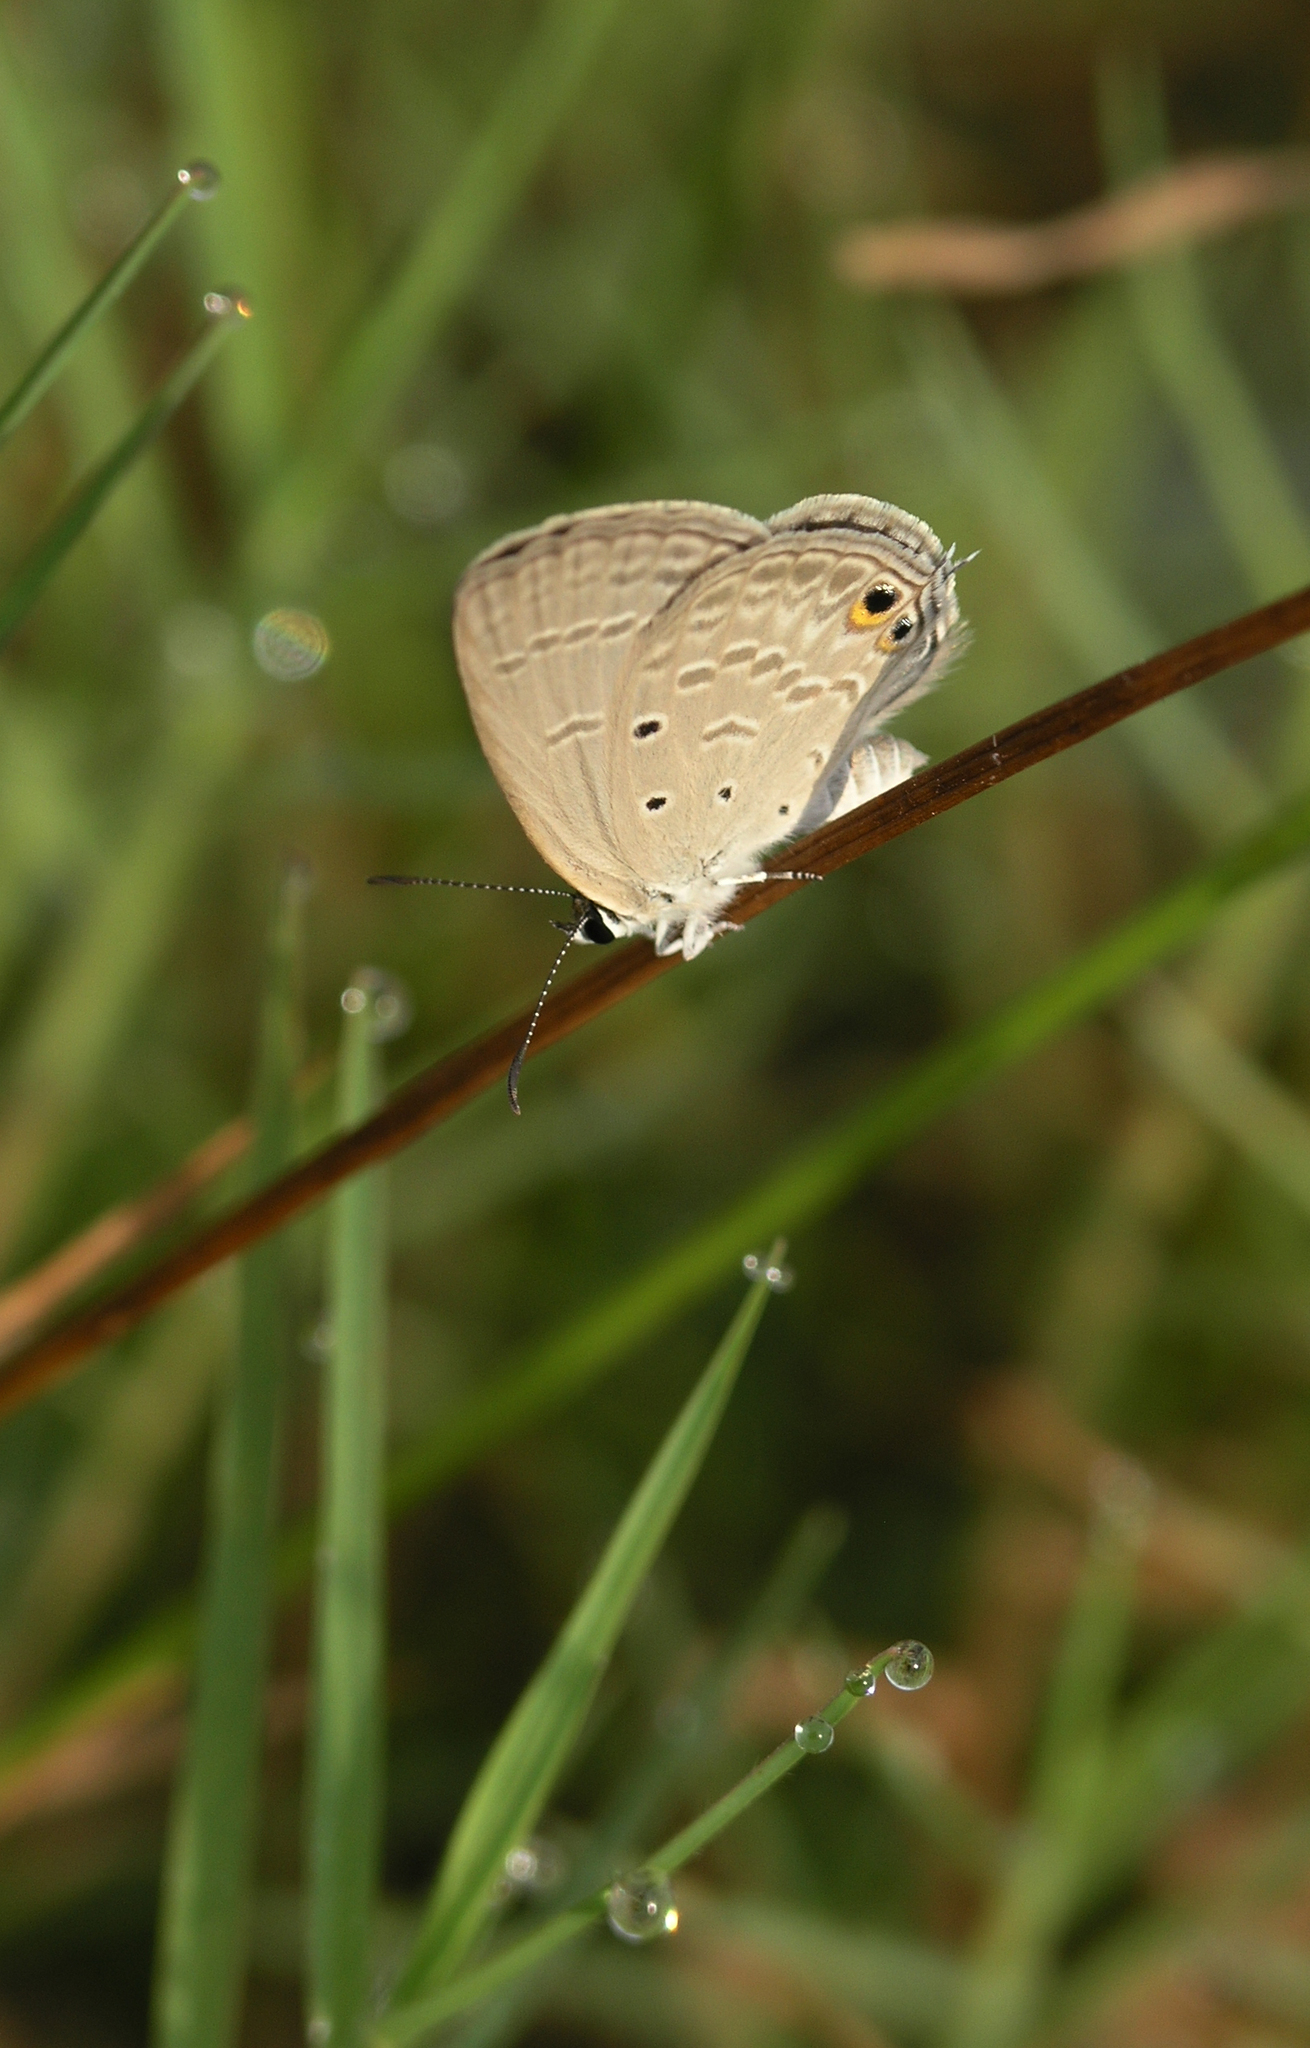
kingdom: Animalia
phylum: Arthropoda
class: Insecta
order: Lepidoptera
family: Lycaenidae
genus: Euchrysops
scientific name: Euchrysops cnejus
